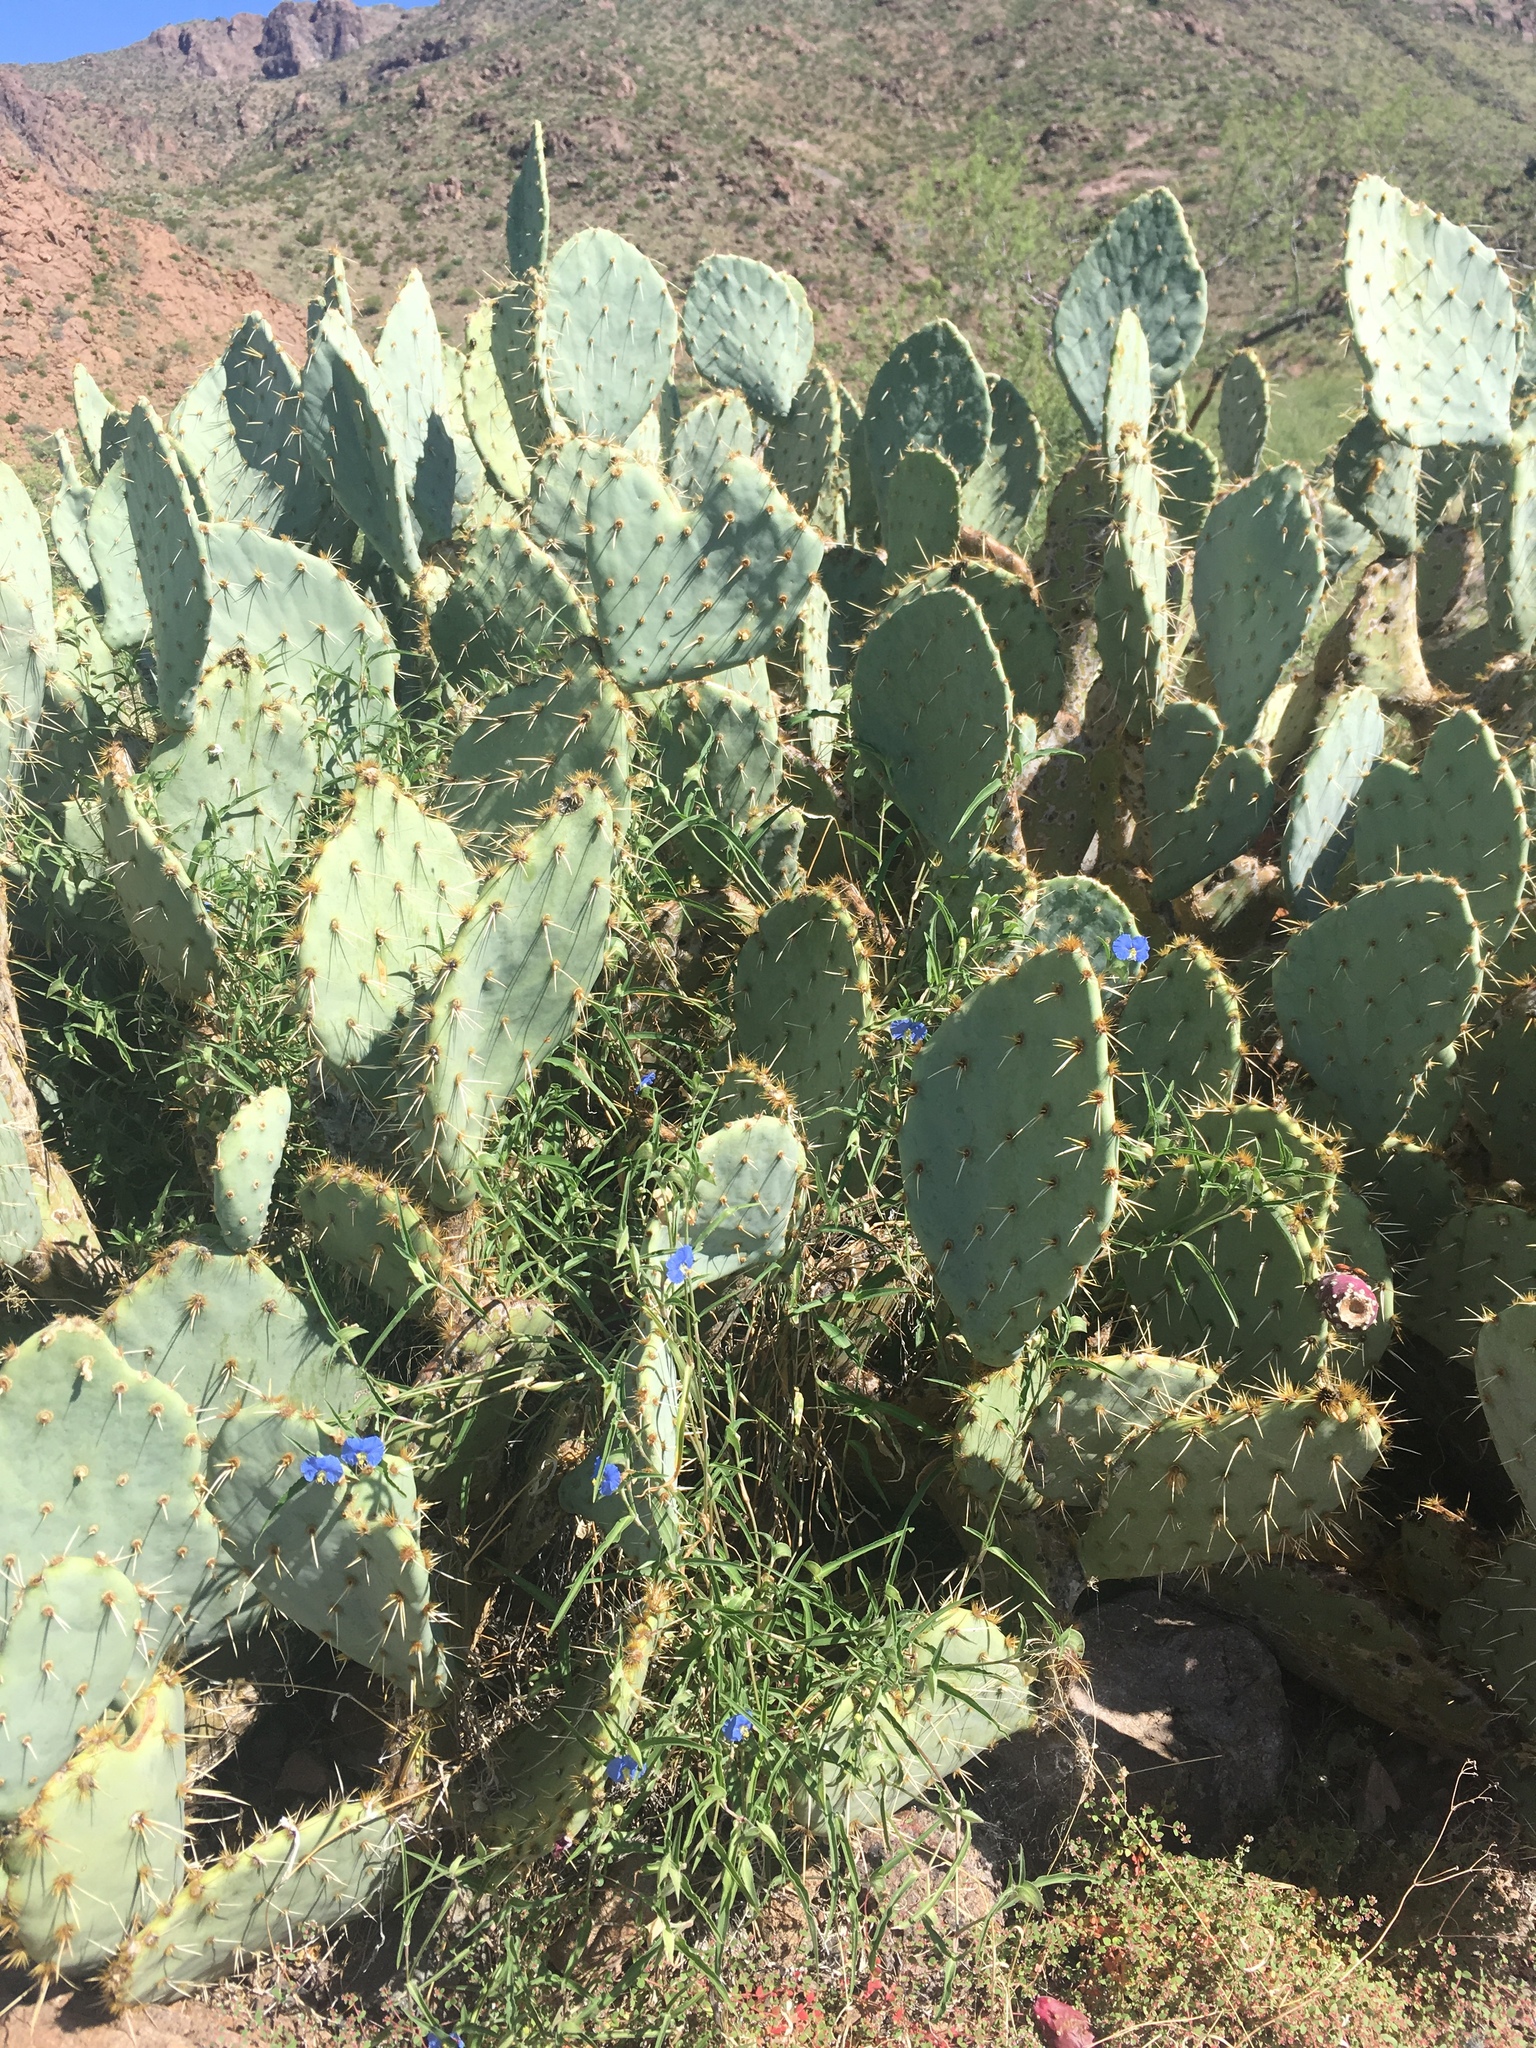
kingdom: Plantae
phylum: Tracheophyta
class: Liliopsida
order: Commelinales
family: Commelinaceae
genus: Commelina
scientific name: Commelina erecta
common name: Blousel blommetjie
